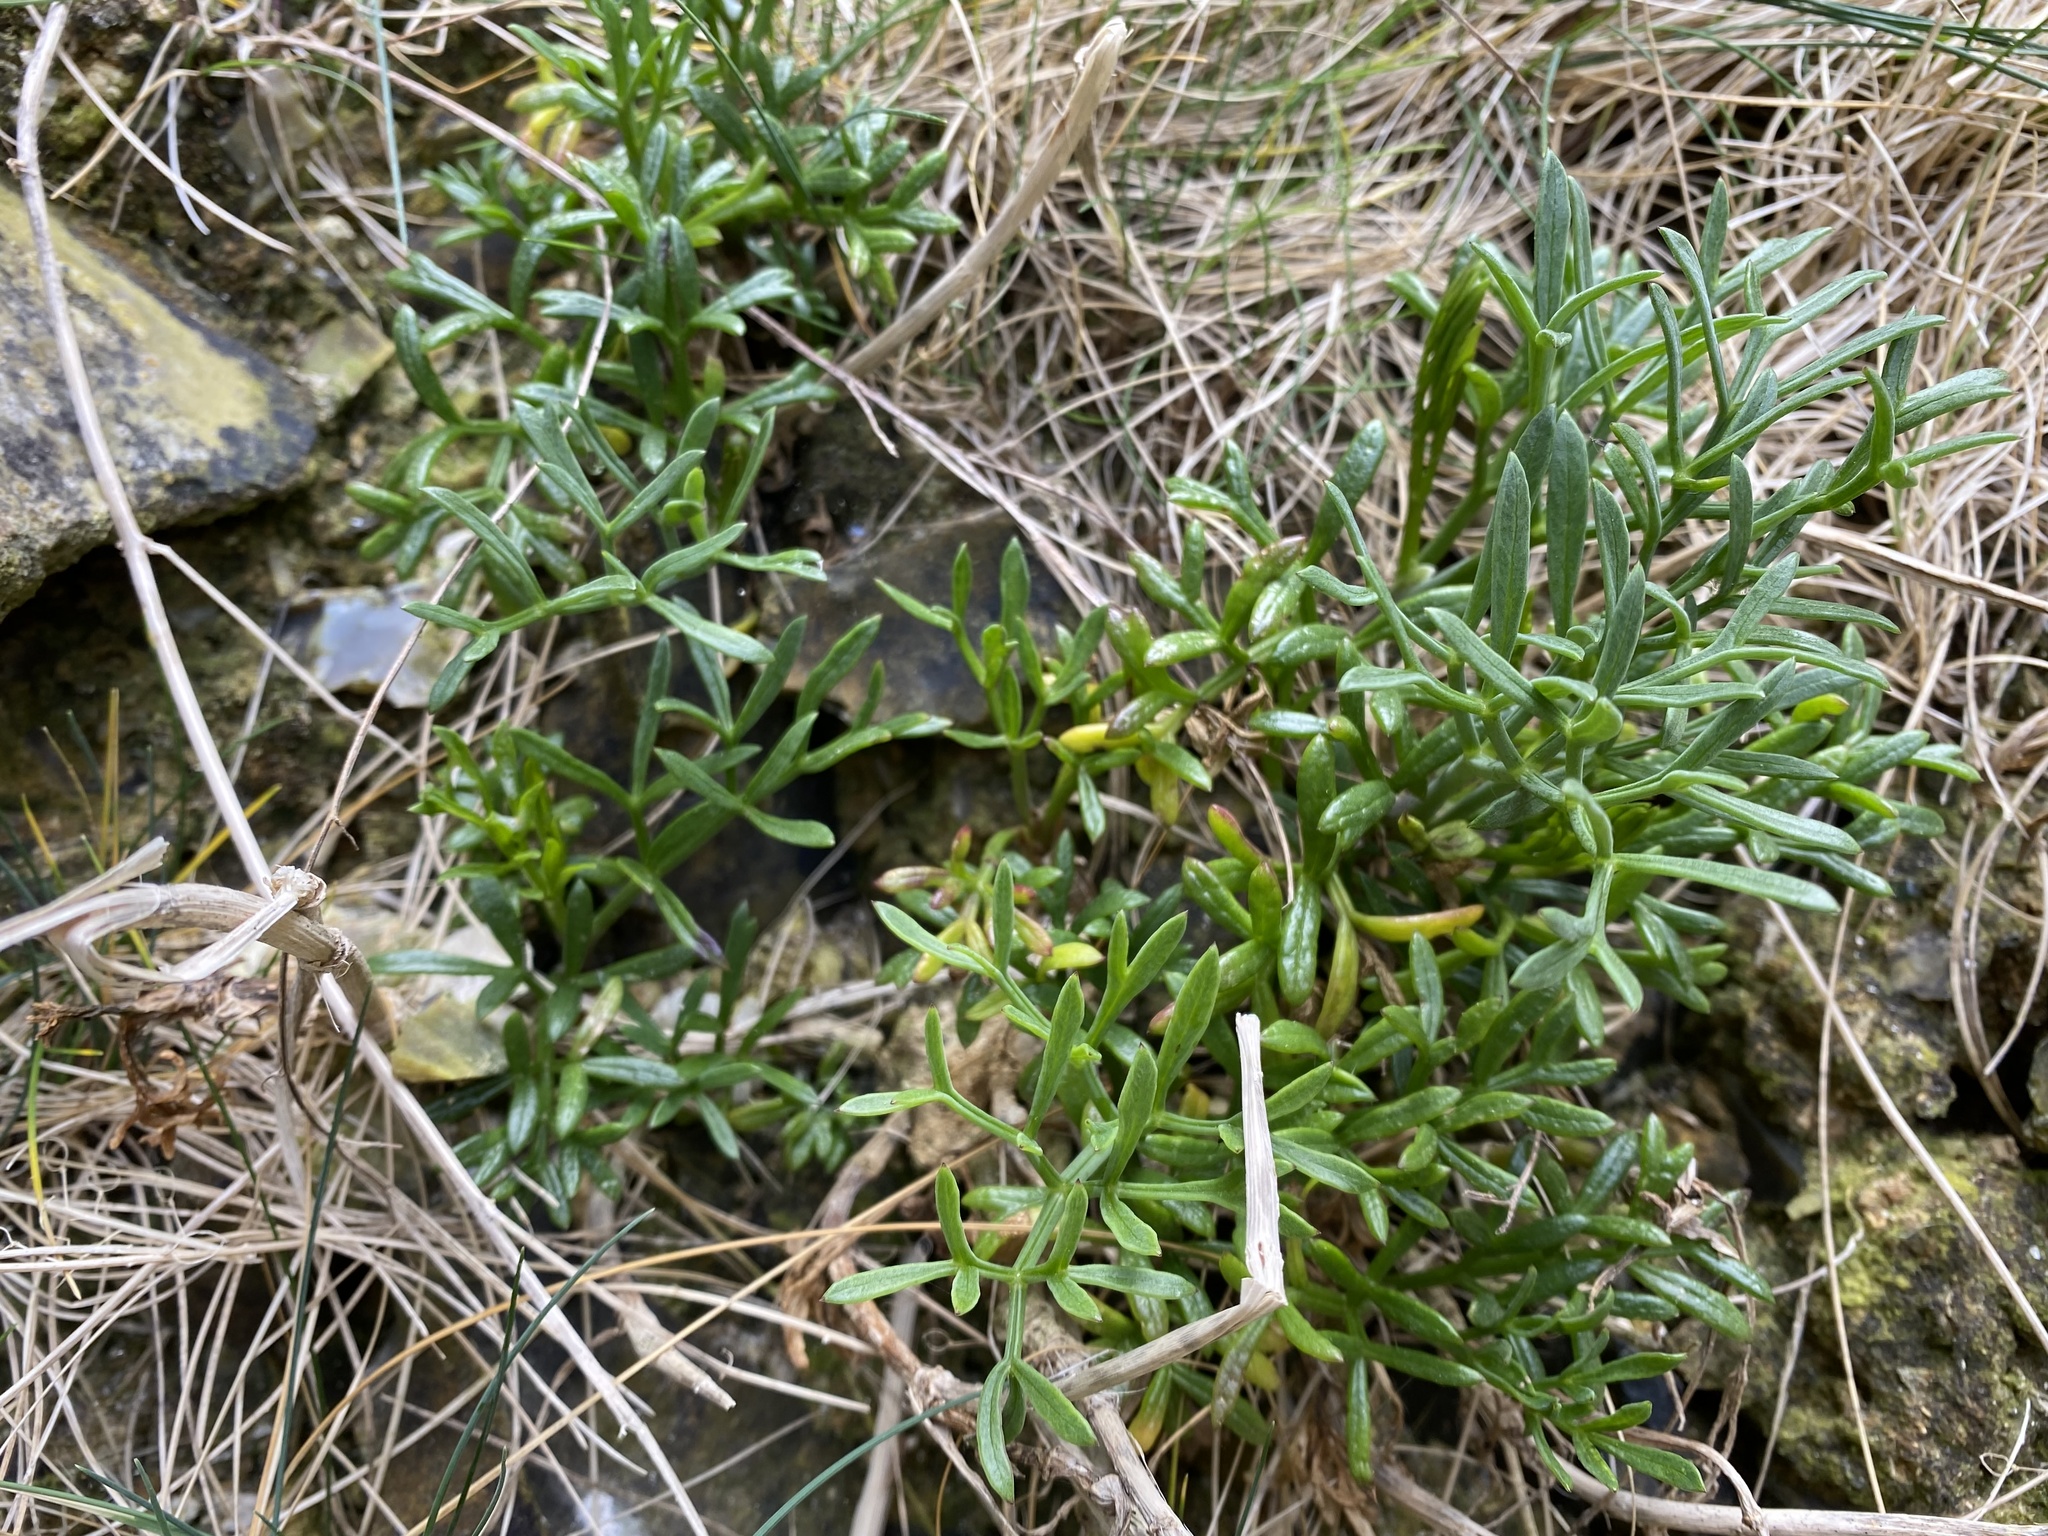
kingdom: Plantae
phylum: Tracheophyta
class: Magnoliopsida
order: Apiales
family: Apiaceae
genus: Crithmum
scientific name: Crithmum maritimum
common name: Rock samphire
